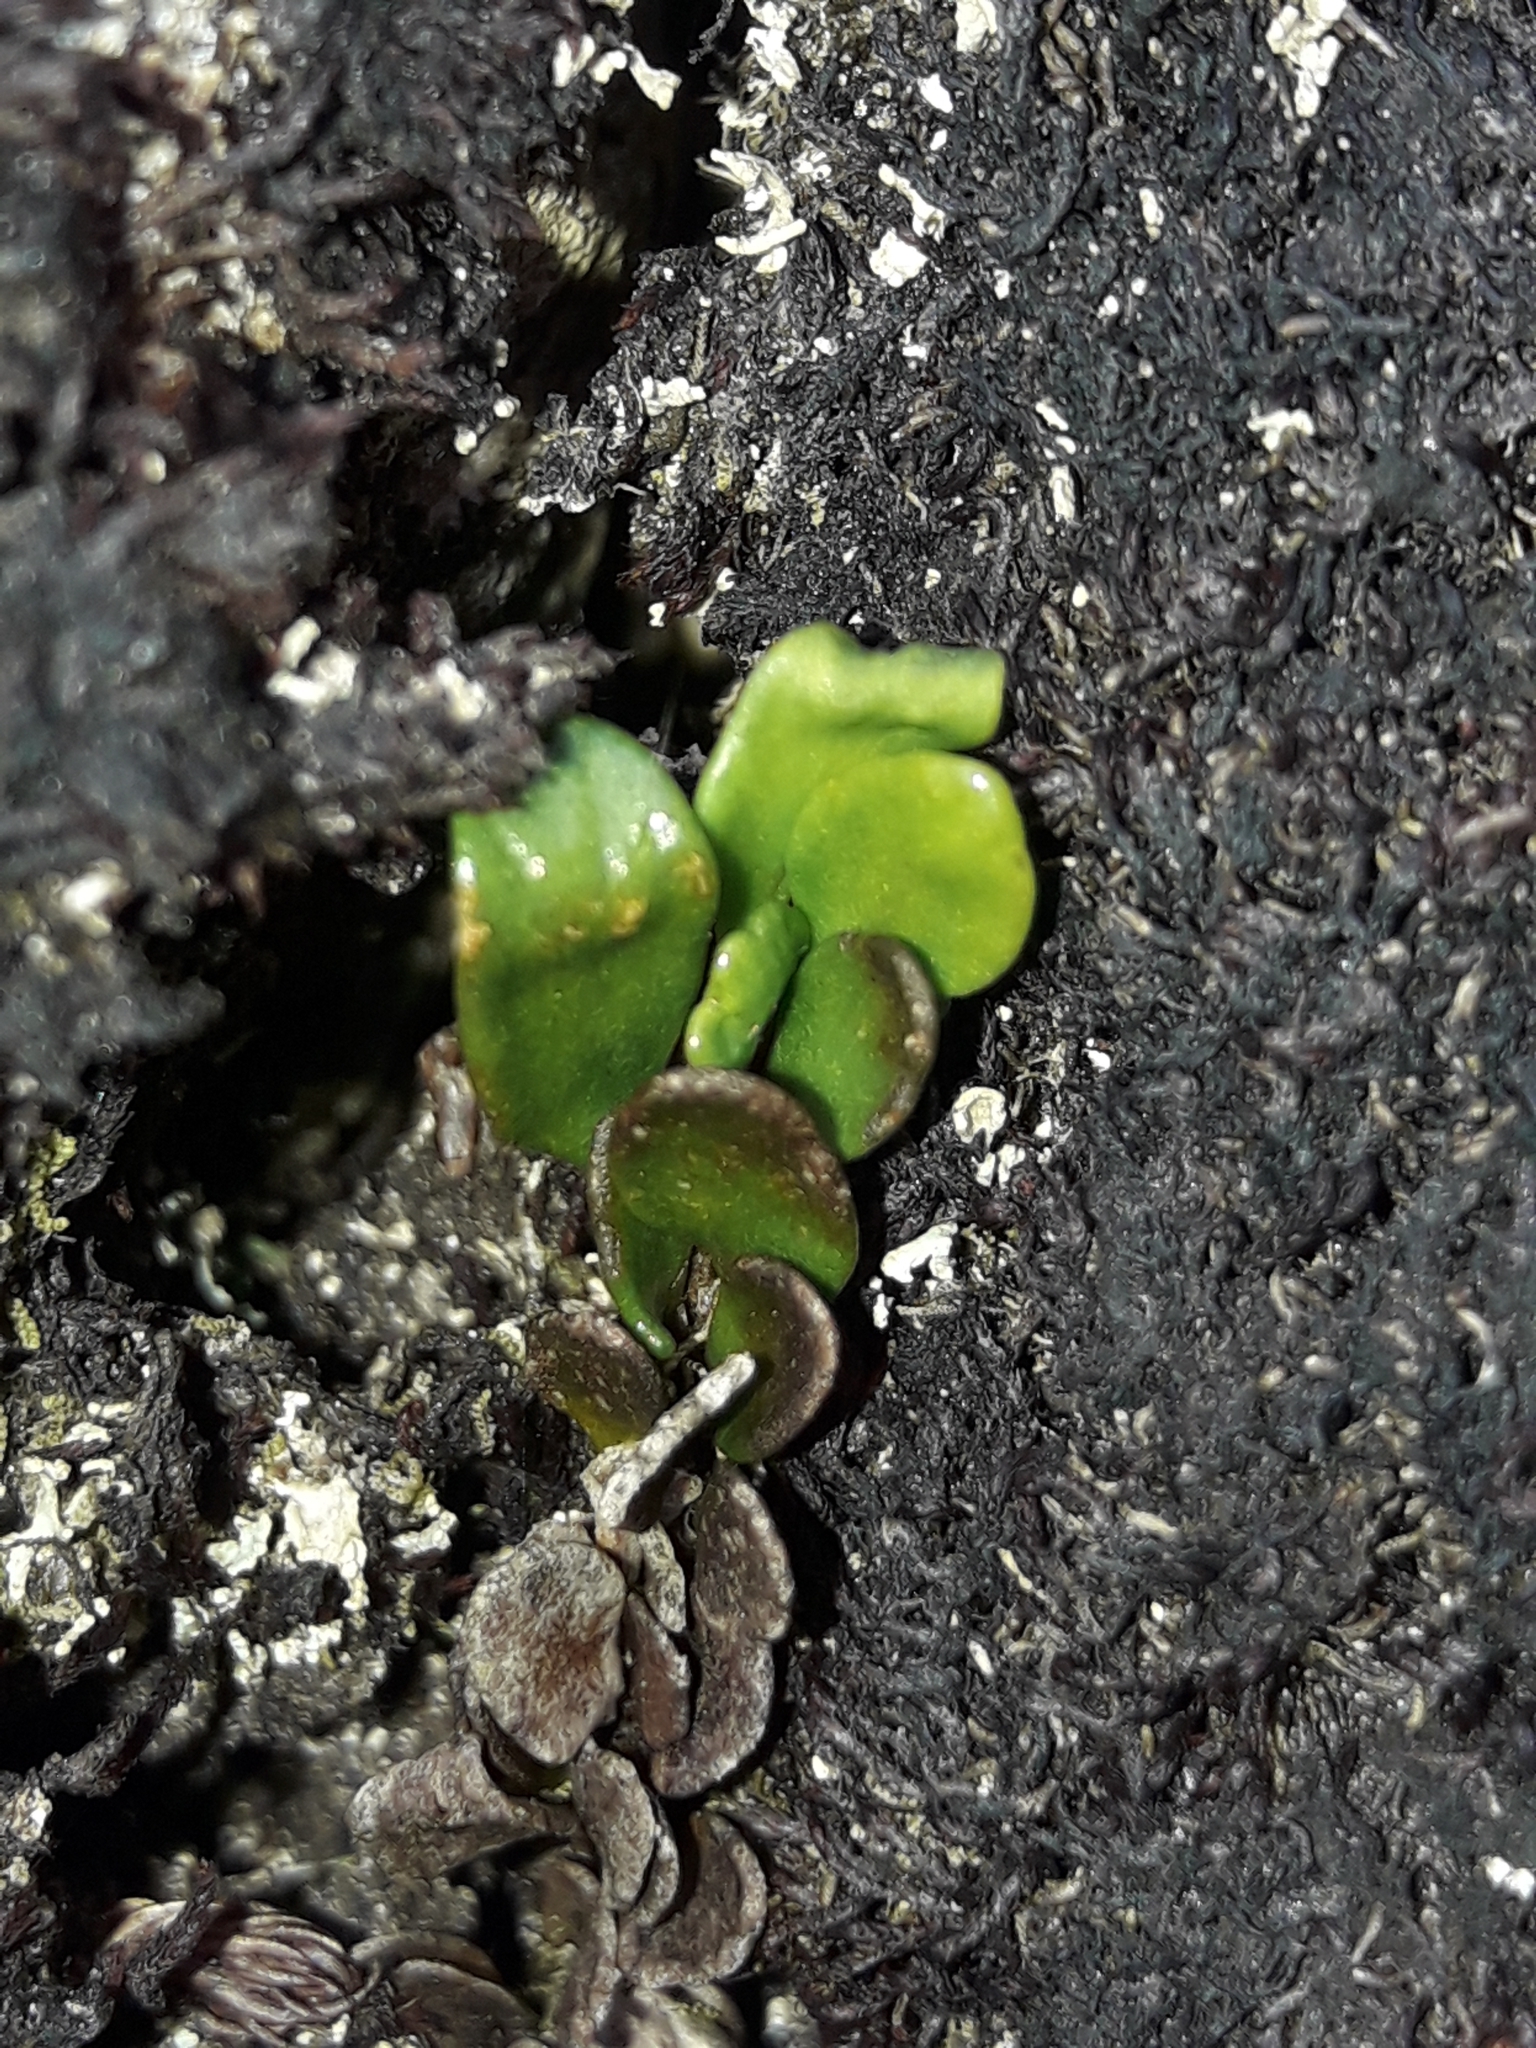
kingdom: Plantae
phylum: Tracheophyta
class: Polypodiopsida
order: Polypodiales
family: Polypodiaceae
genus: Notogrammitis
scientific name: Notogrammitis crassior
